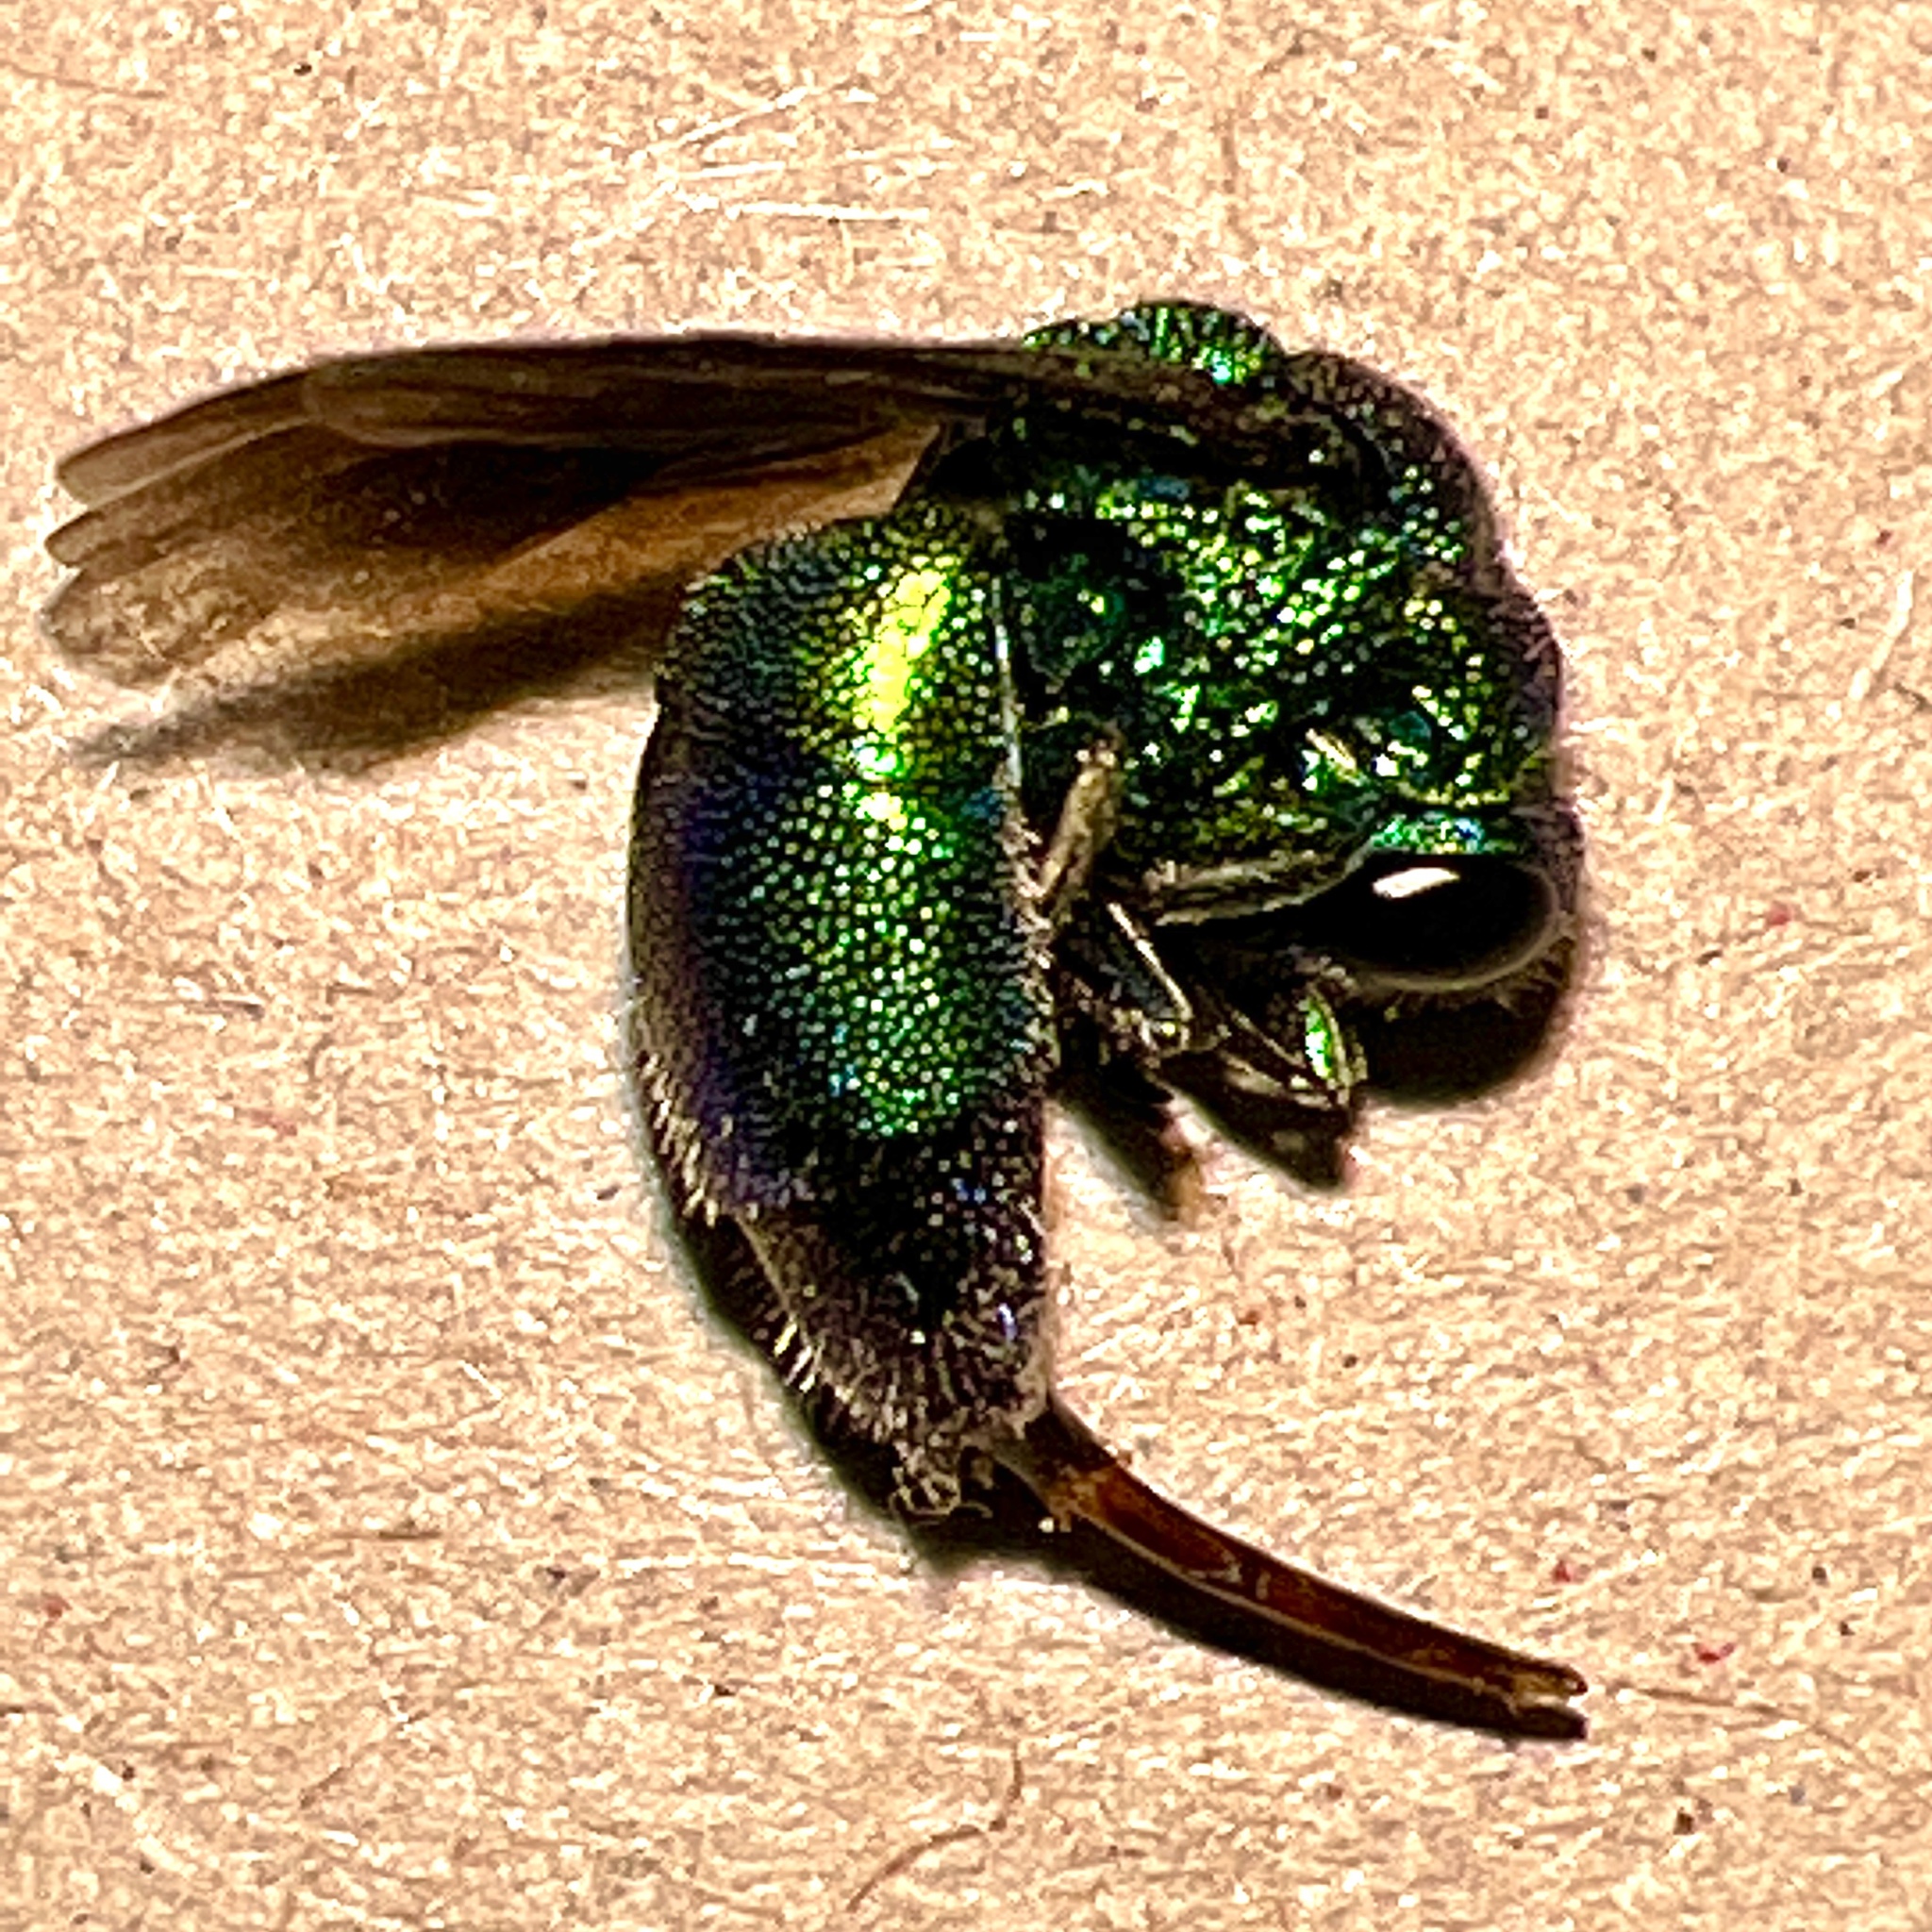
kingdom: Animalia
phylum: Arthropoda
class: Insecta
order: Hymenoptera
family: Chrysididae
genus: Chrysis
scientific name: Chrysis angolensis
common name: Cuckoo wasp
